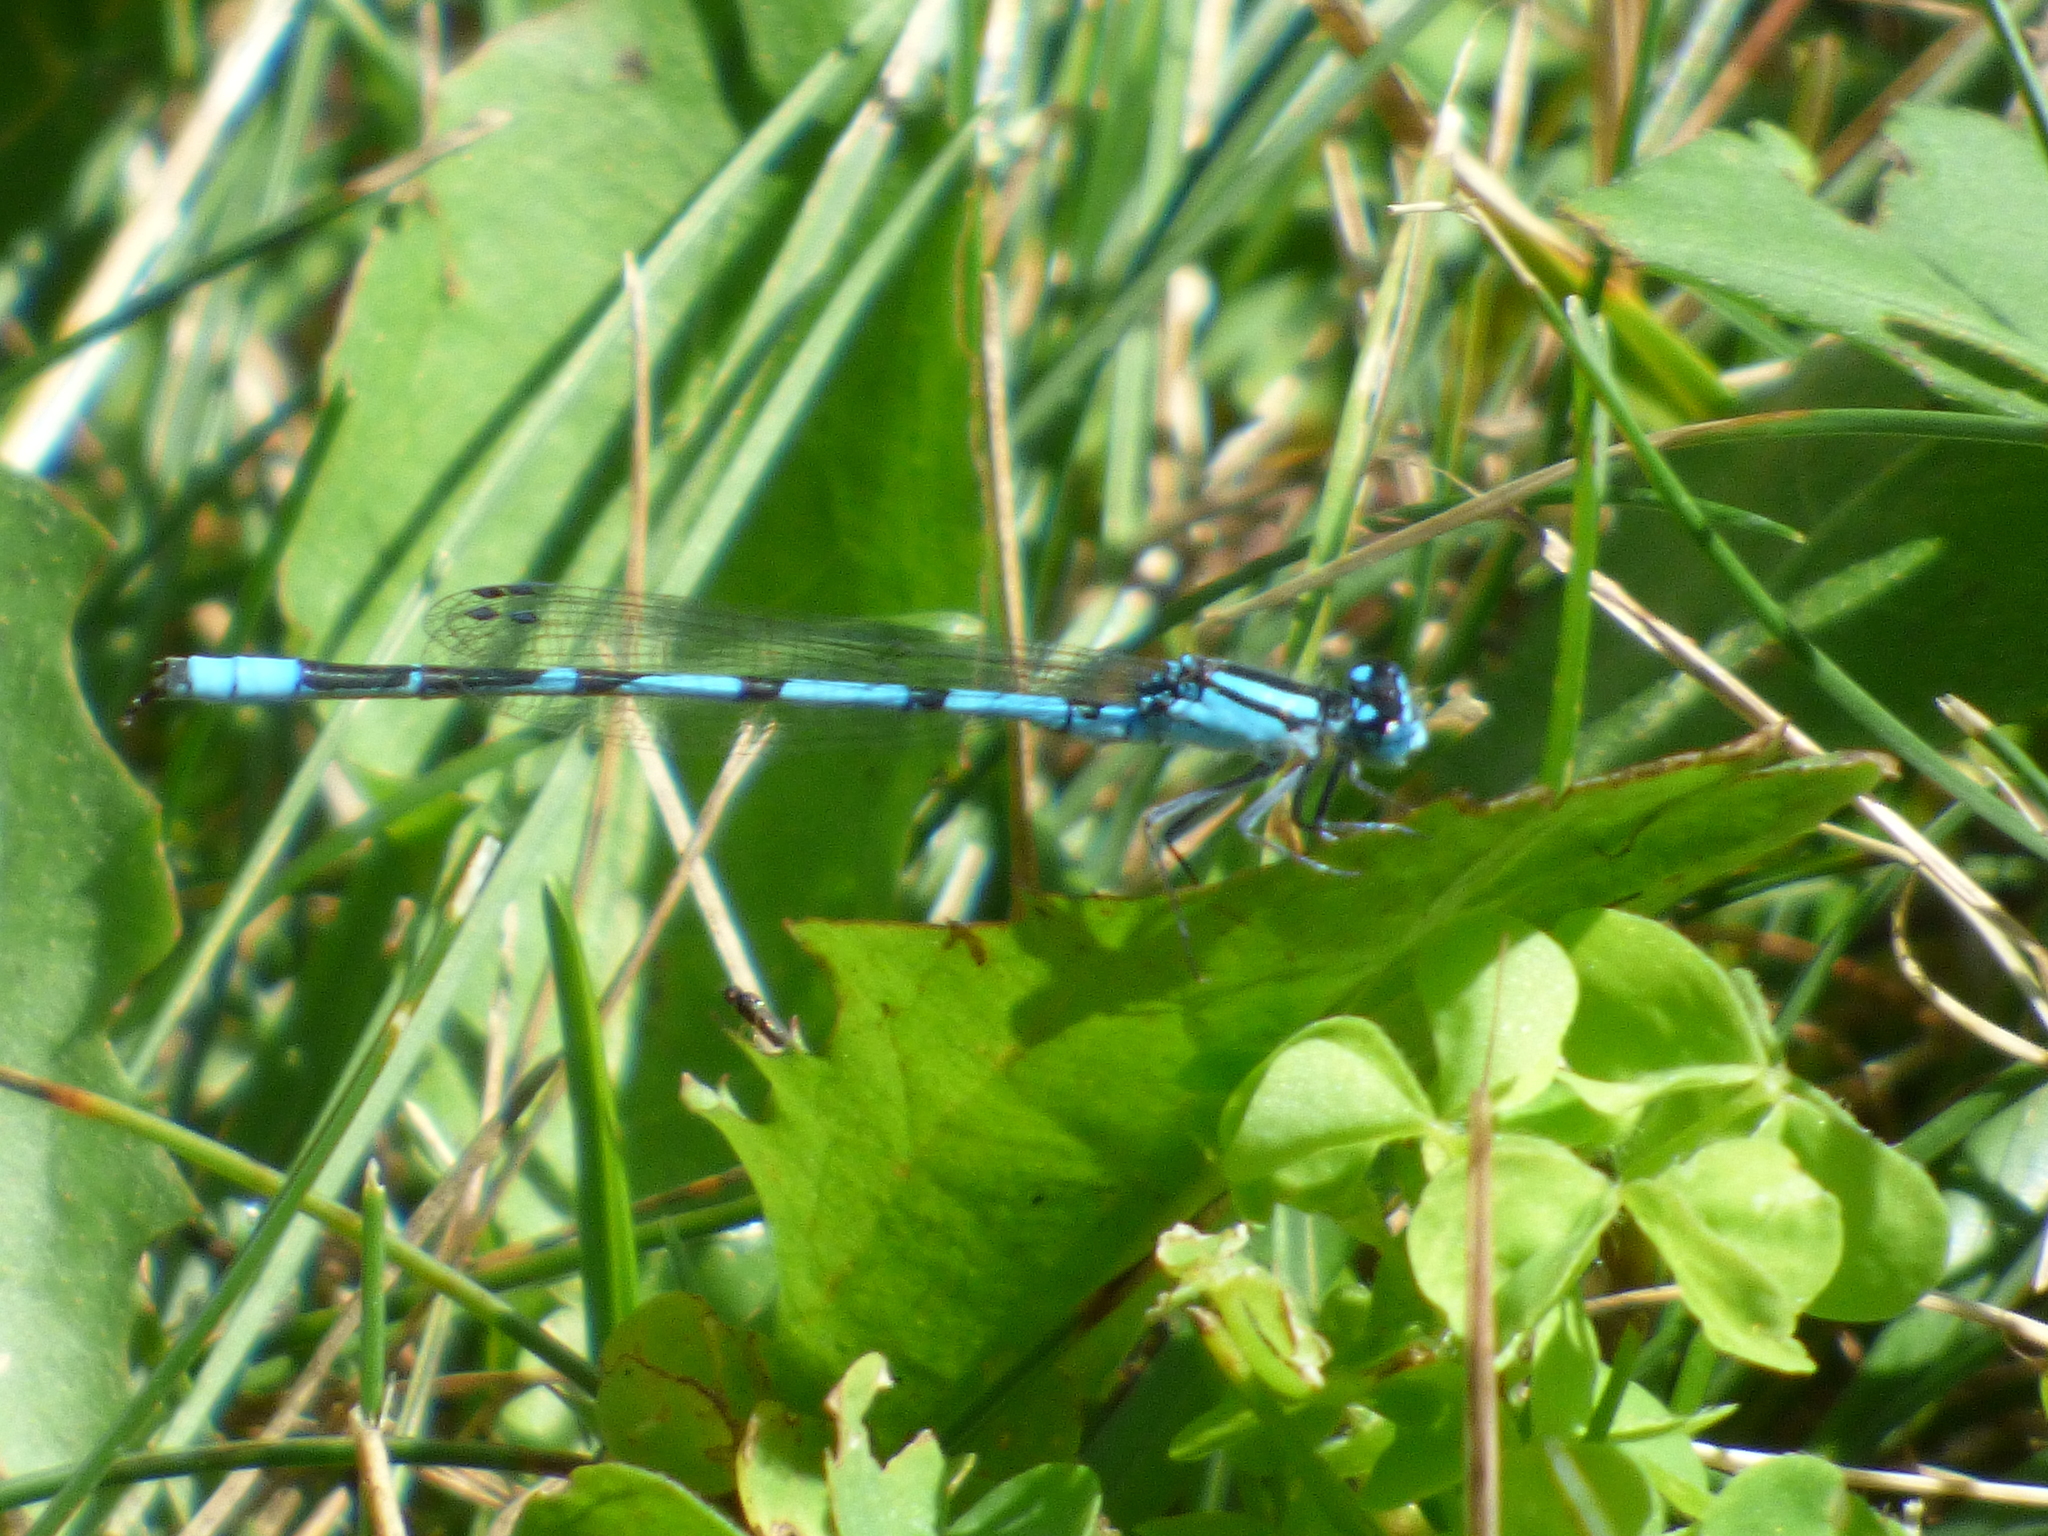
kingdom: Animalia
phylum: Arthropoda
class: Insecta
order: Odonata
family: Coenagrionidae
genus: Enallagma
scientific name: Enallagma
